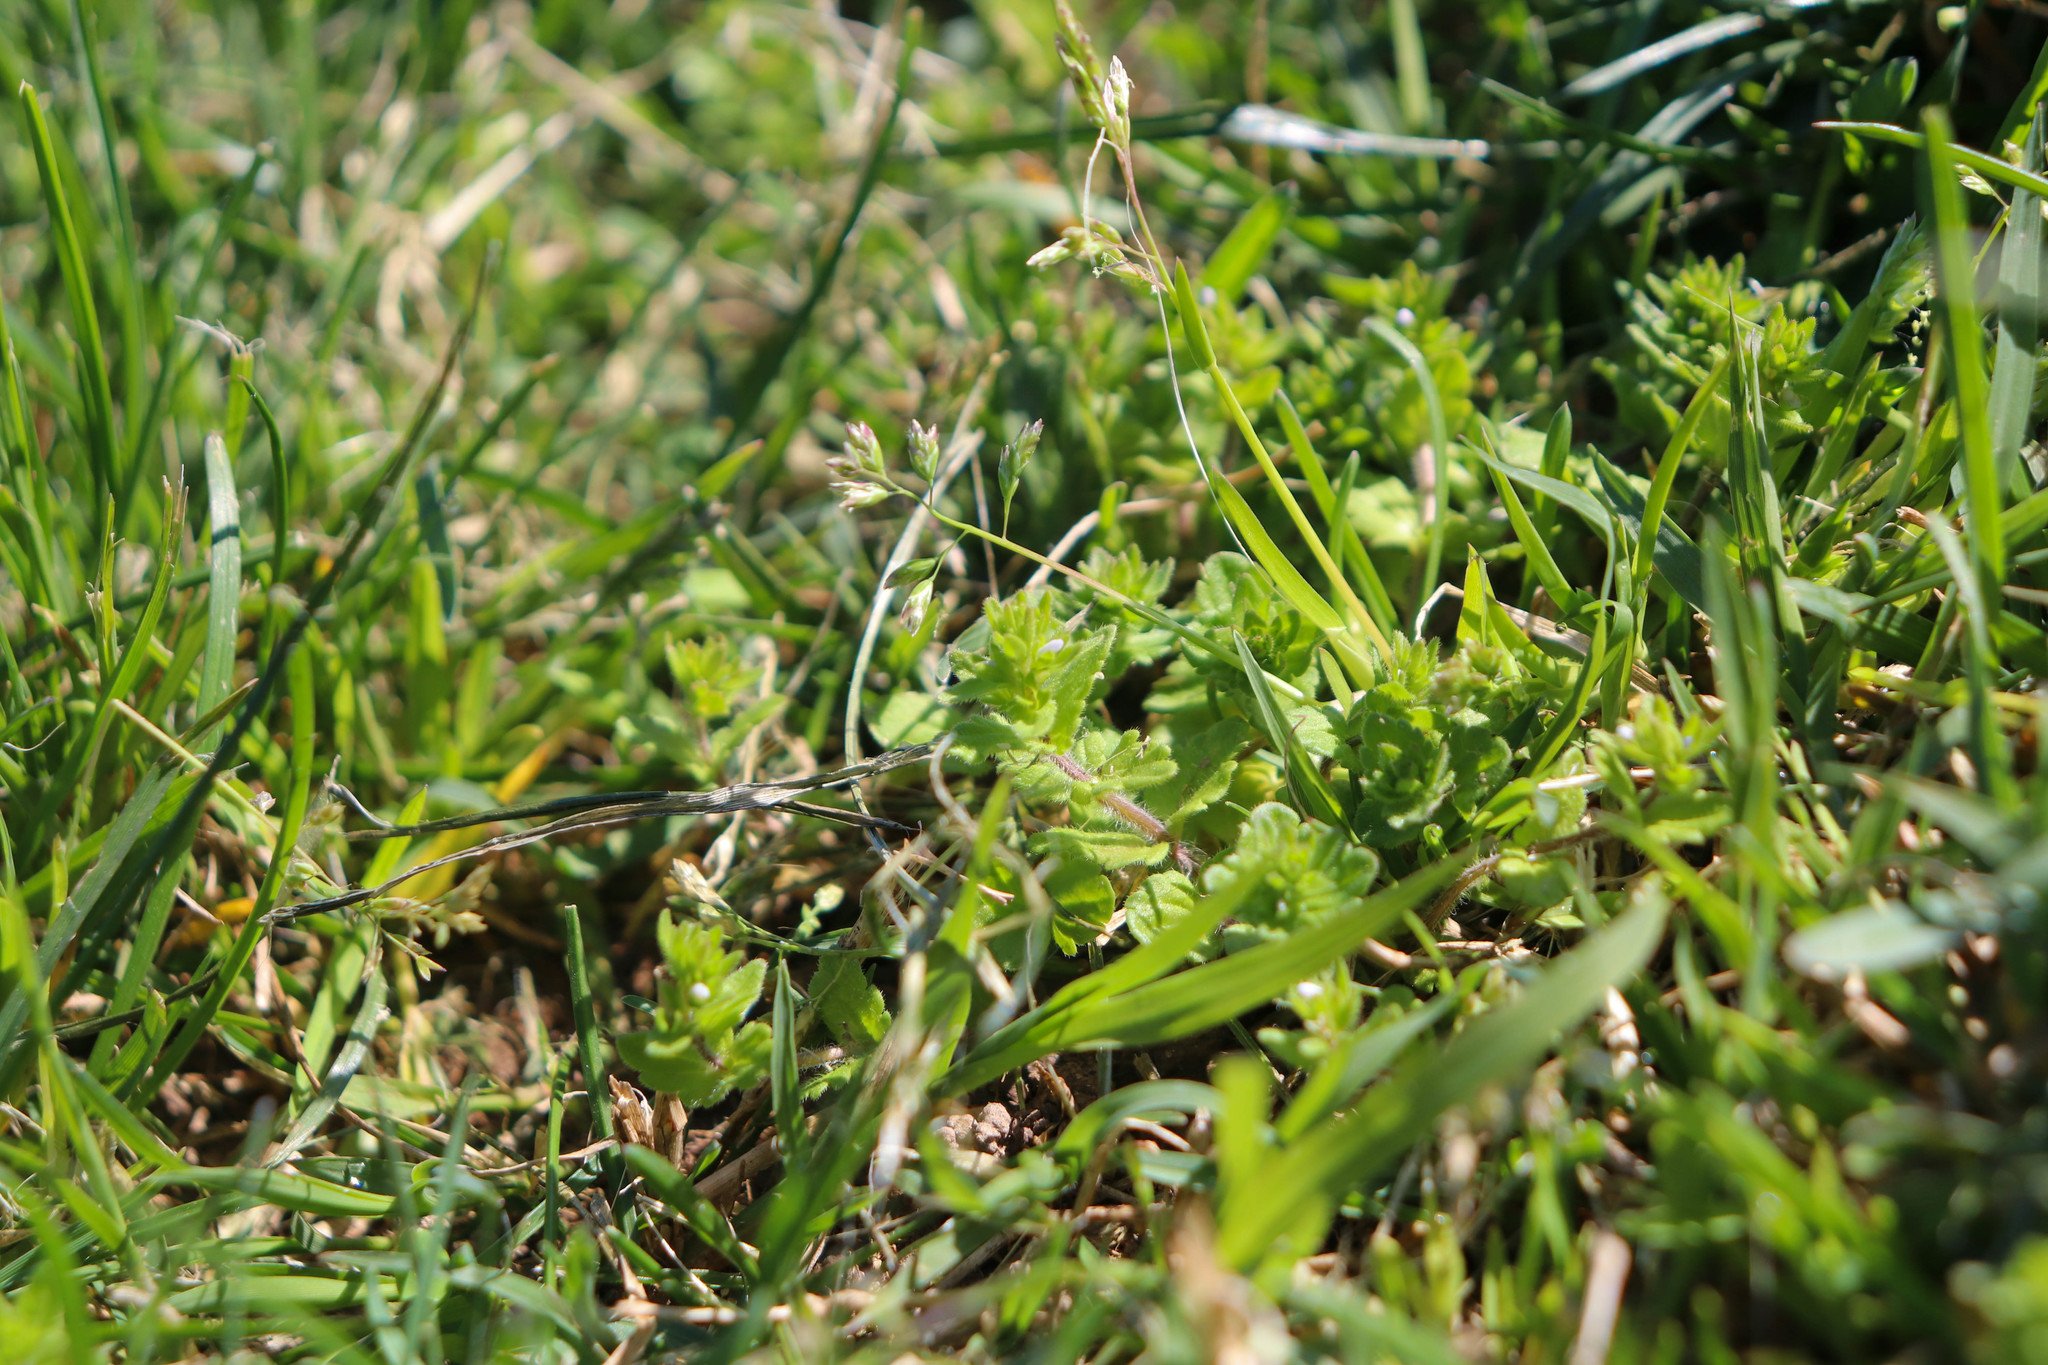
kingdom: Plantae
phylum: Tracheophyta
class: Magnoliopsida
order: Lamiales
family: Plantaginaceae
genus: Veronica
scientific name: Veronica arvensis
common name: Corn speedwell
